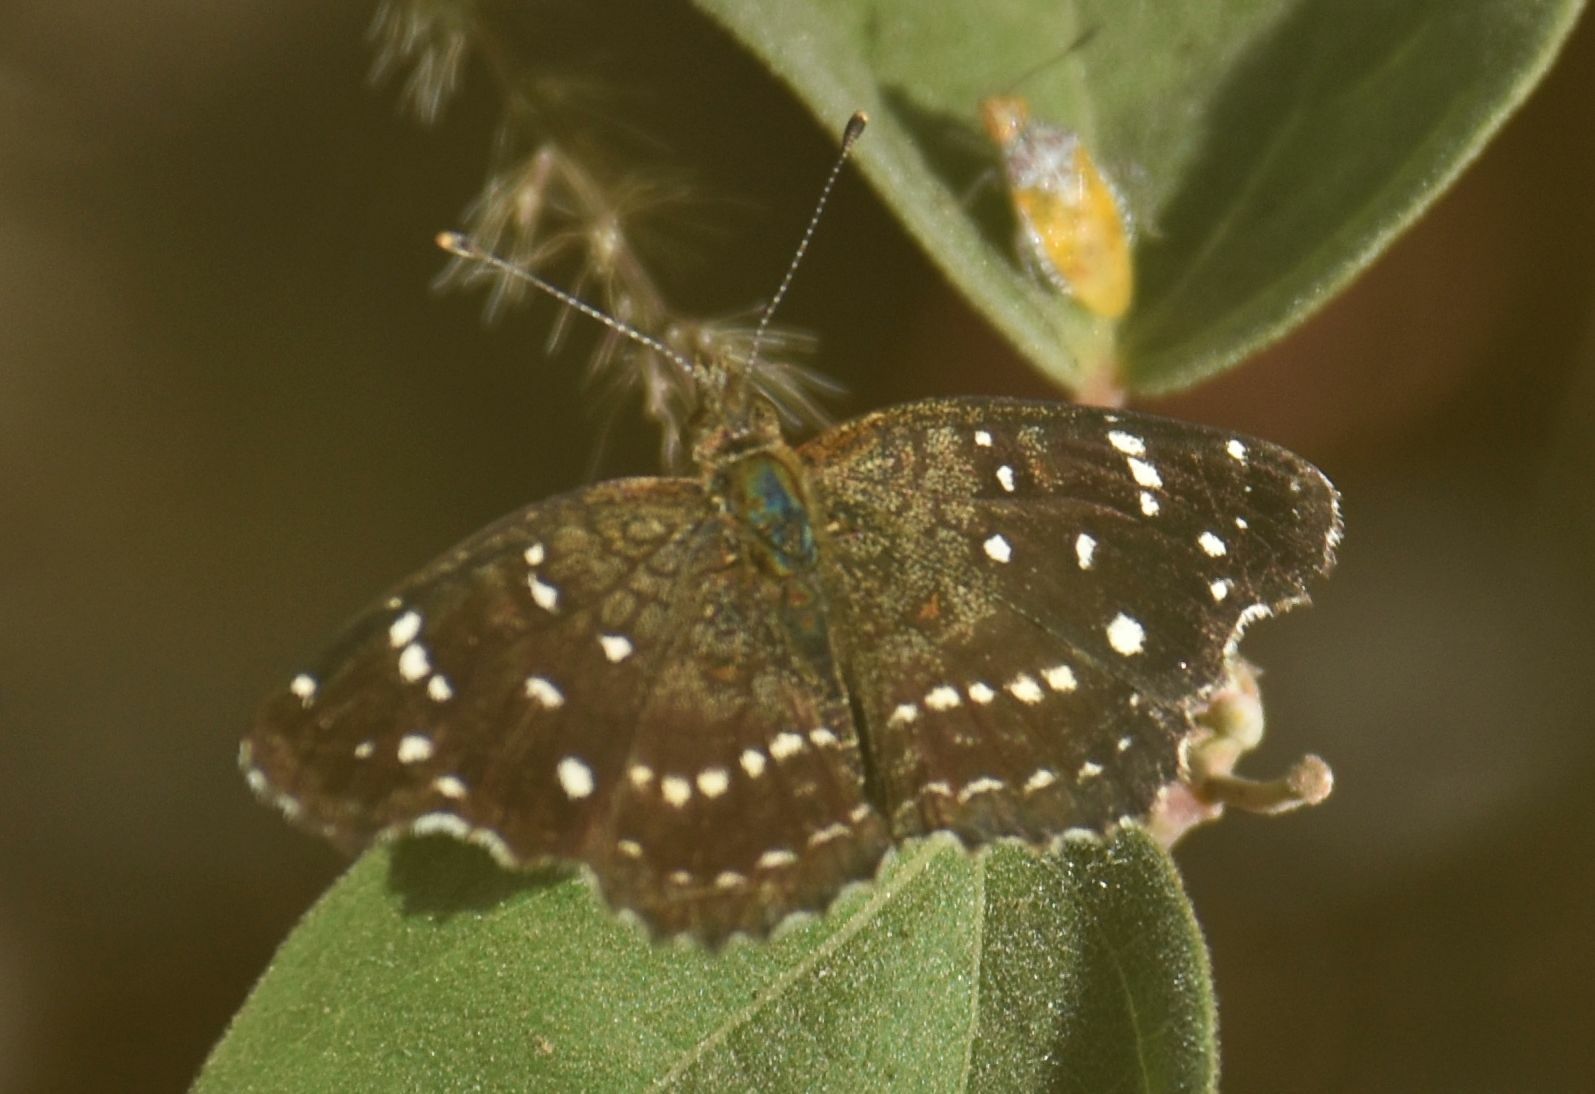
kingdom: Animalia
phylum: Arthropoda
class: Insecta
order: Lepidoptera
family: Nymphalidae
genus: Anthanassa
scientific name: Anthanassa texana
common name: Texan crescent
